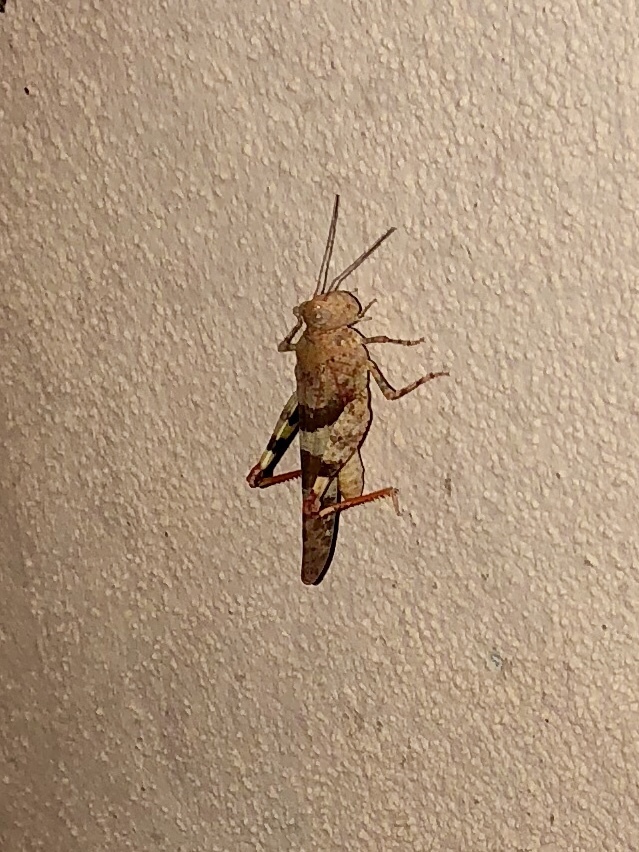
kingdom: Animalia
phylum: Arthropoda
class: Insecta
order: Orthoptera
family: Acrididae
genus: Trimerotropis
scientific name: Trimerotropis latifasciata
